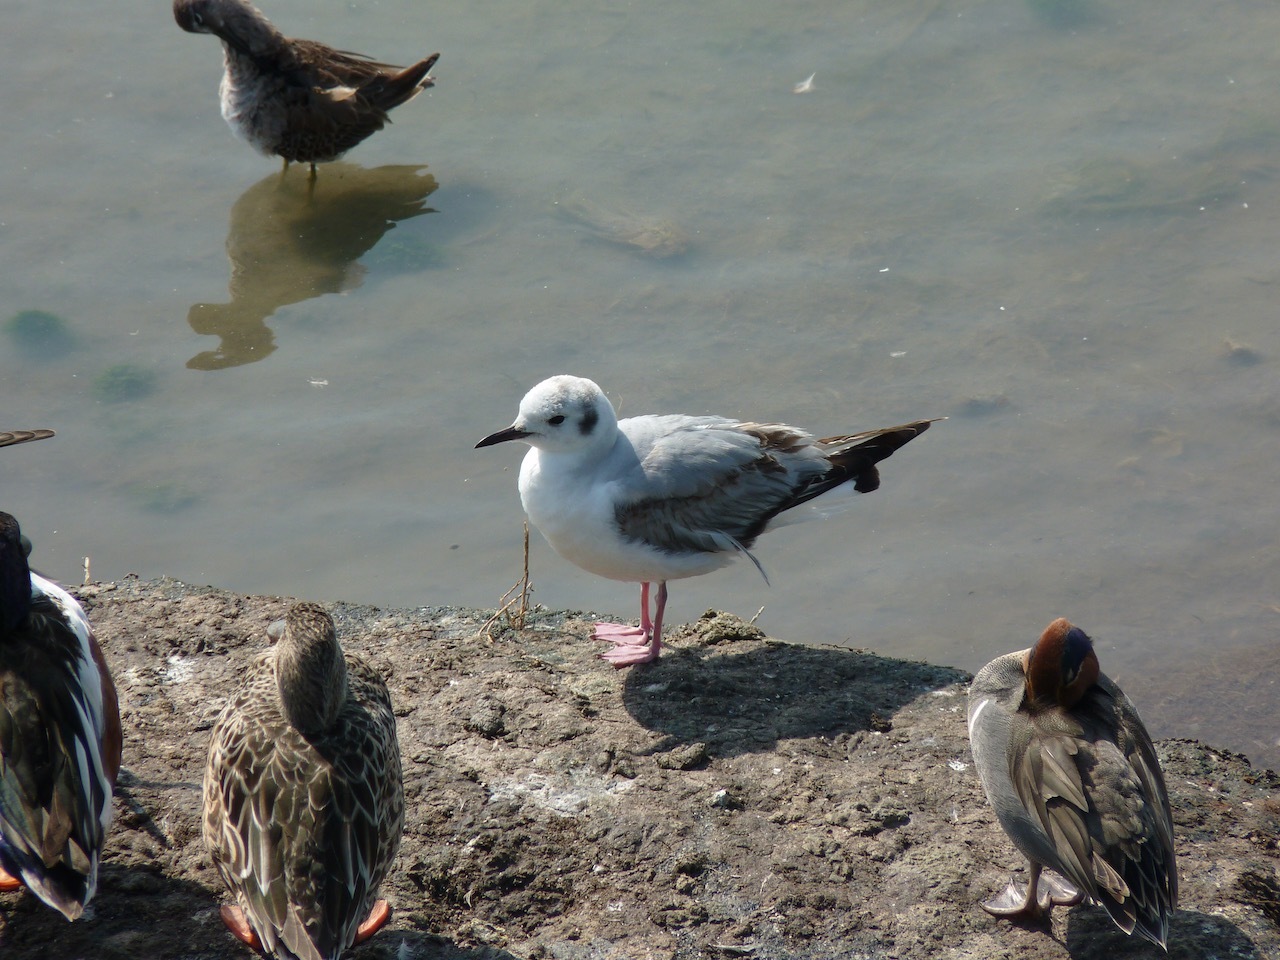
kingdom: Animalia
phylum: Chordata
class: Aves
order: Charadriiformes
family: Laridae
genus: Chroicocephalus
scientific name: Chroicocephalus philadelphia
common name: Bonaparte's gull
